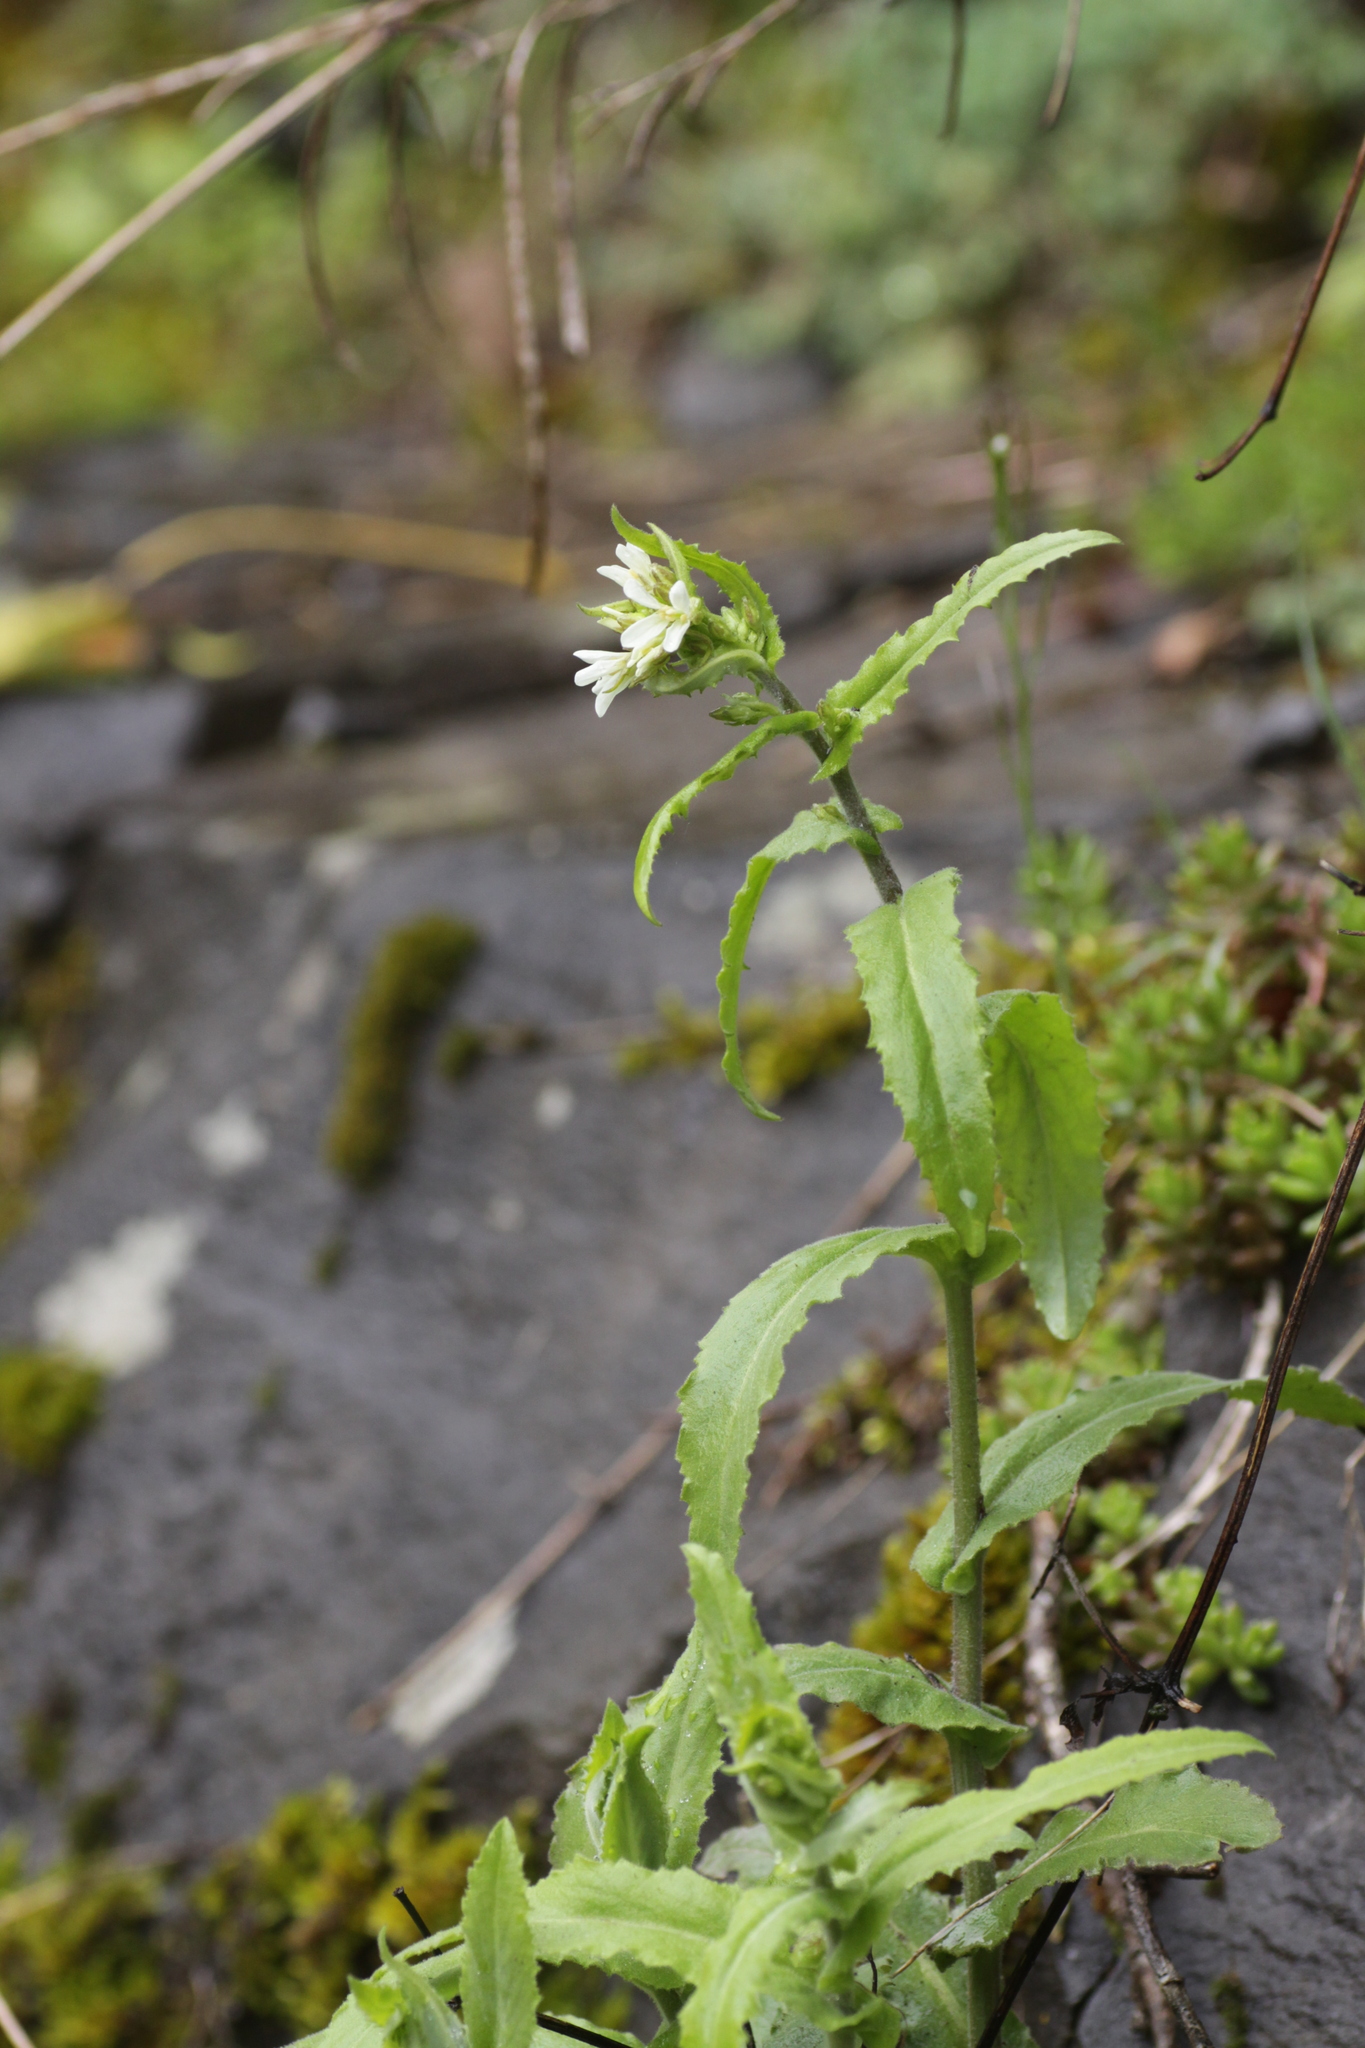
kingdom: Plantae
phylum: Tracheophyta
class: Magnoliopsida
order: Brassicales
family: Brassicaceae
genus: Pseudoturritis
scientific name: Pseudoturritis turrita
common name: Tower cress
